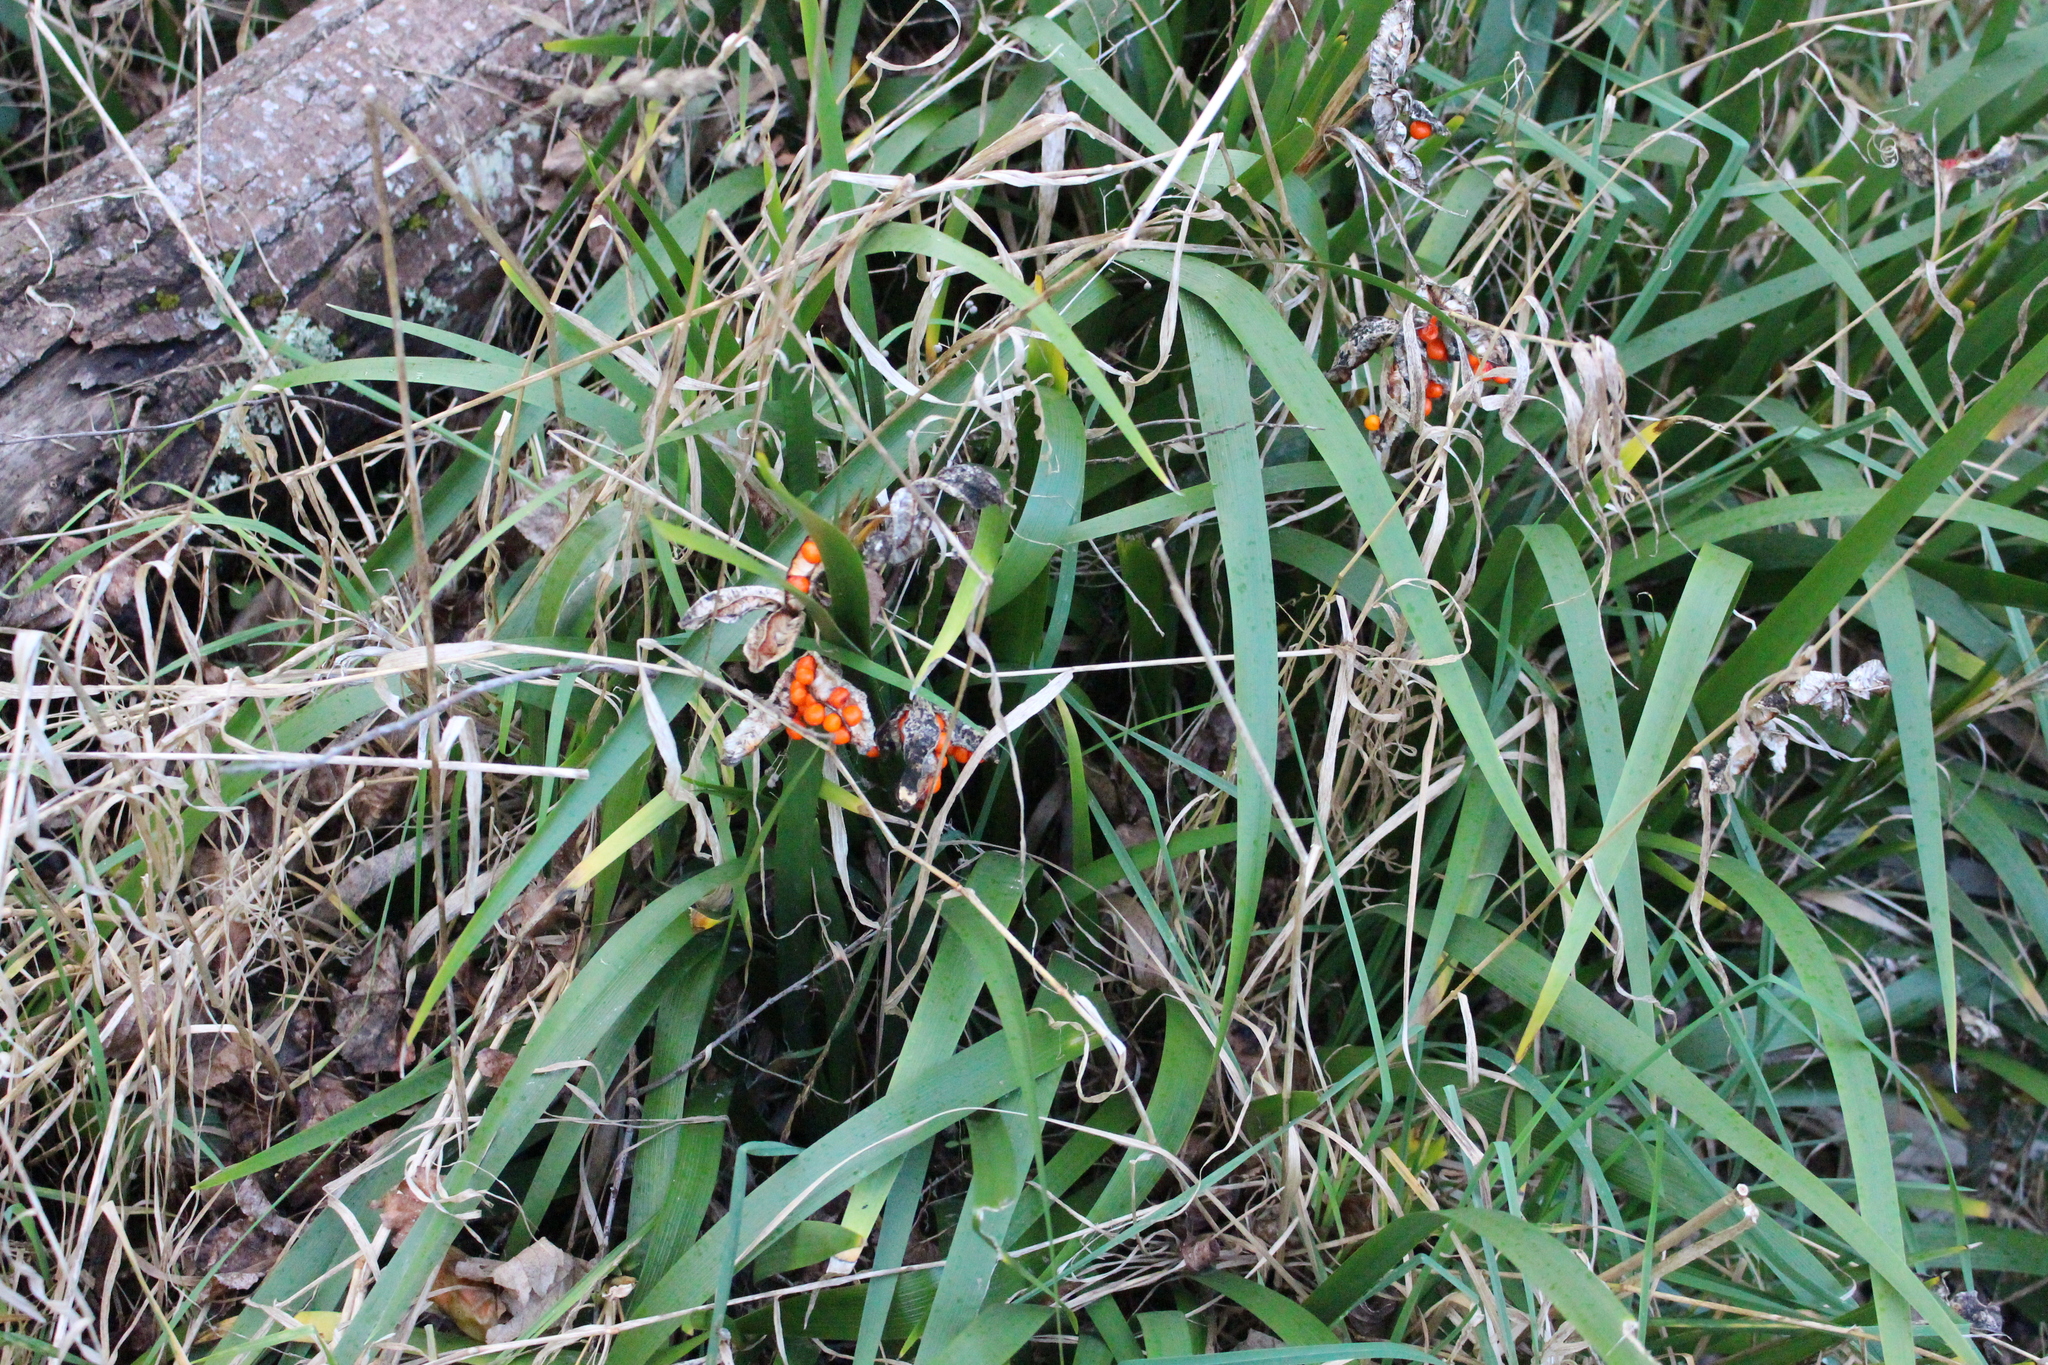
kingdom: Plantae
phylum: Tracheophyta
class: Liliopsida
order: Asparagales
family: Iridaceae
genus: Iris
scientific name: Iris foetidissima
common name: Stinking iris
